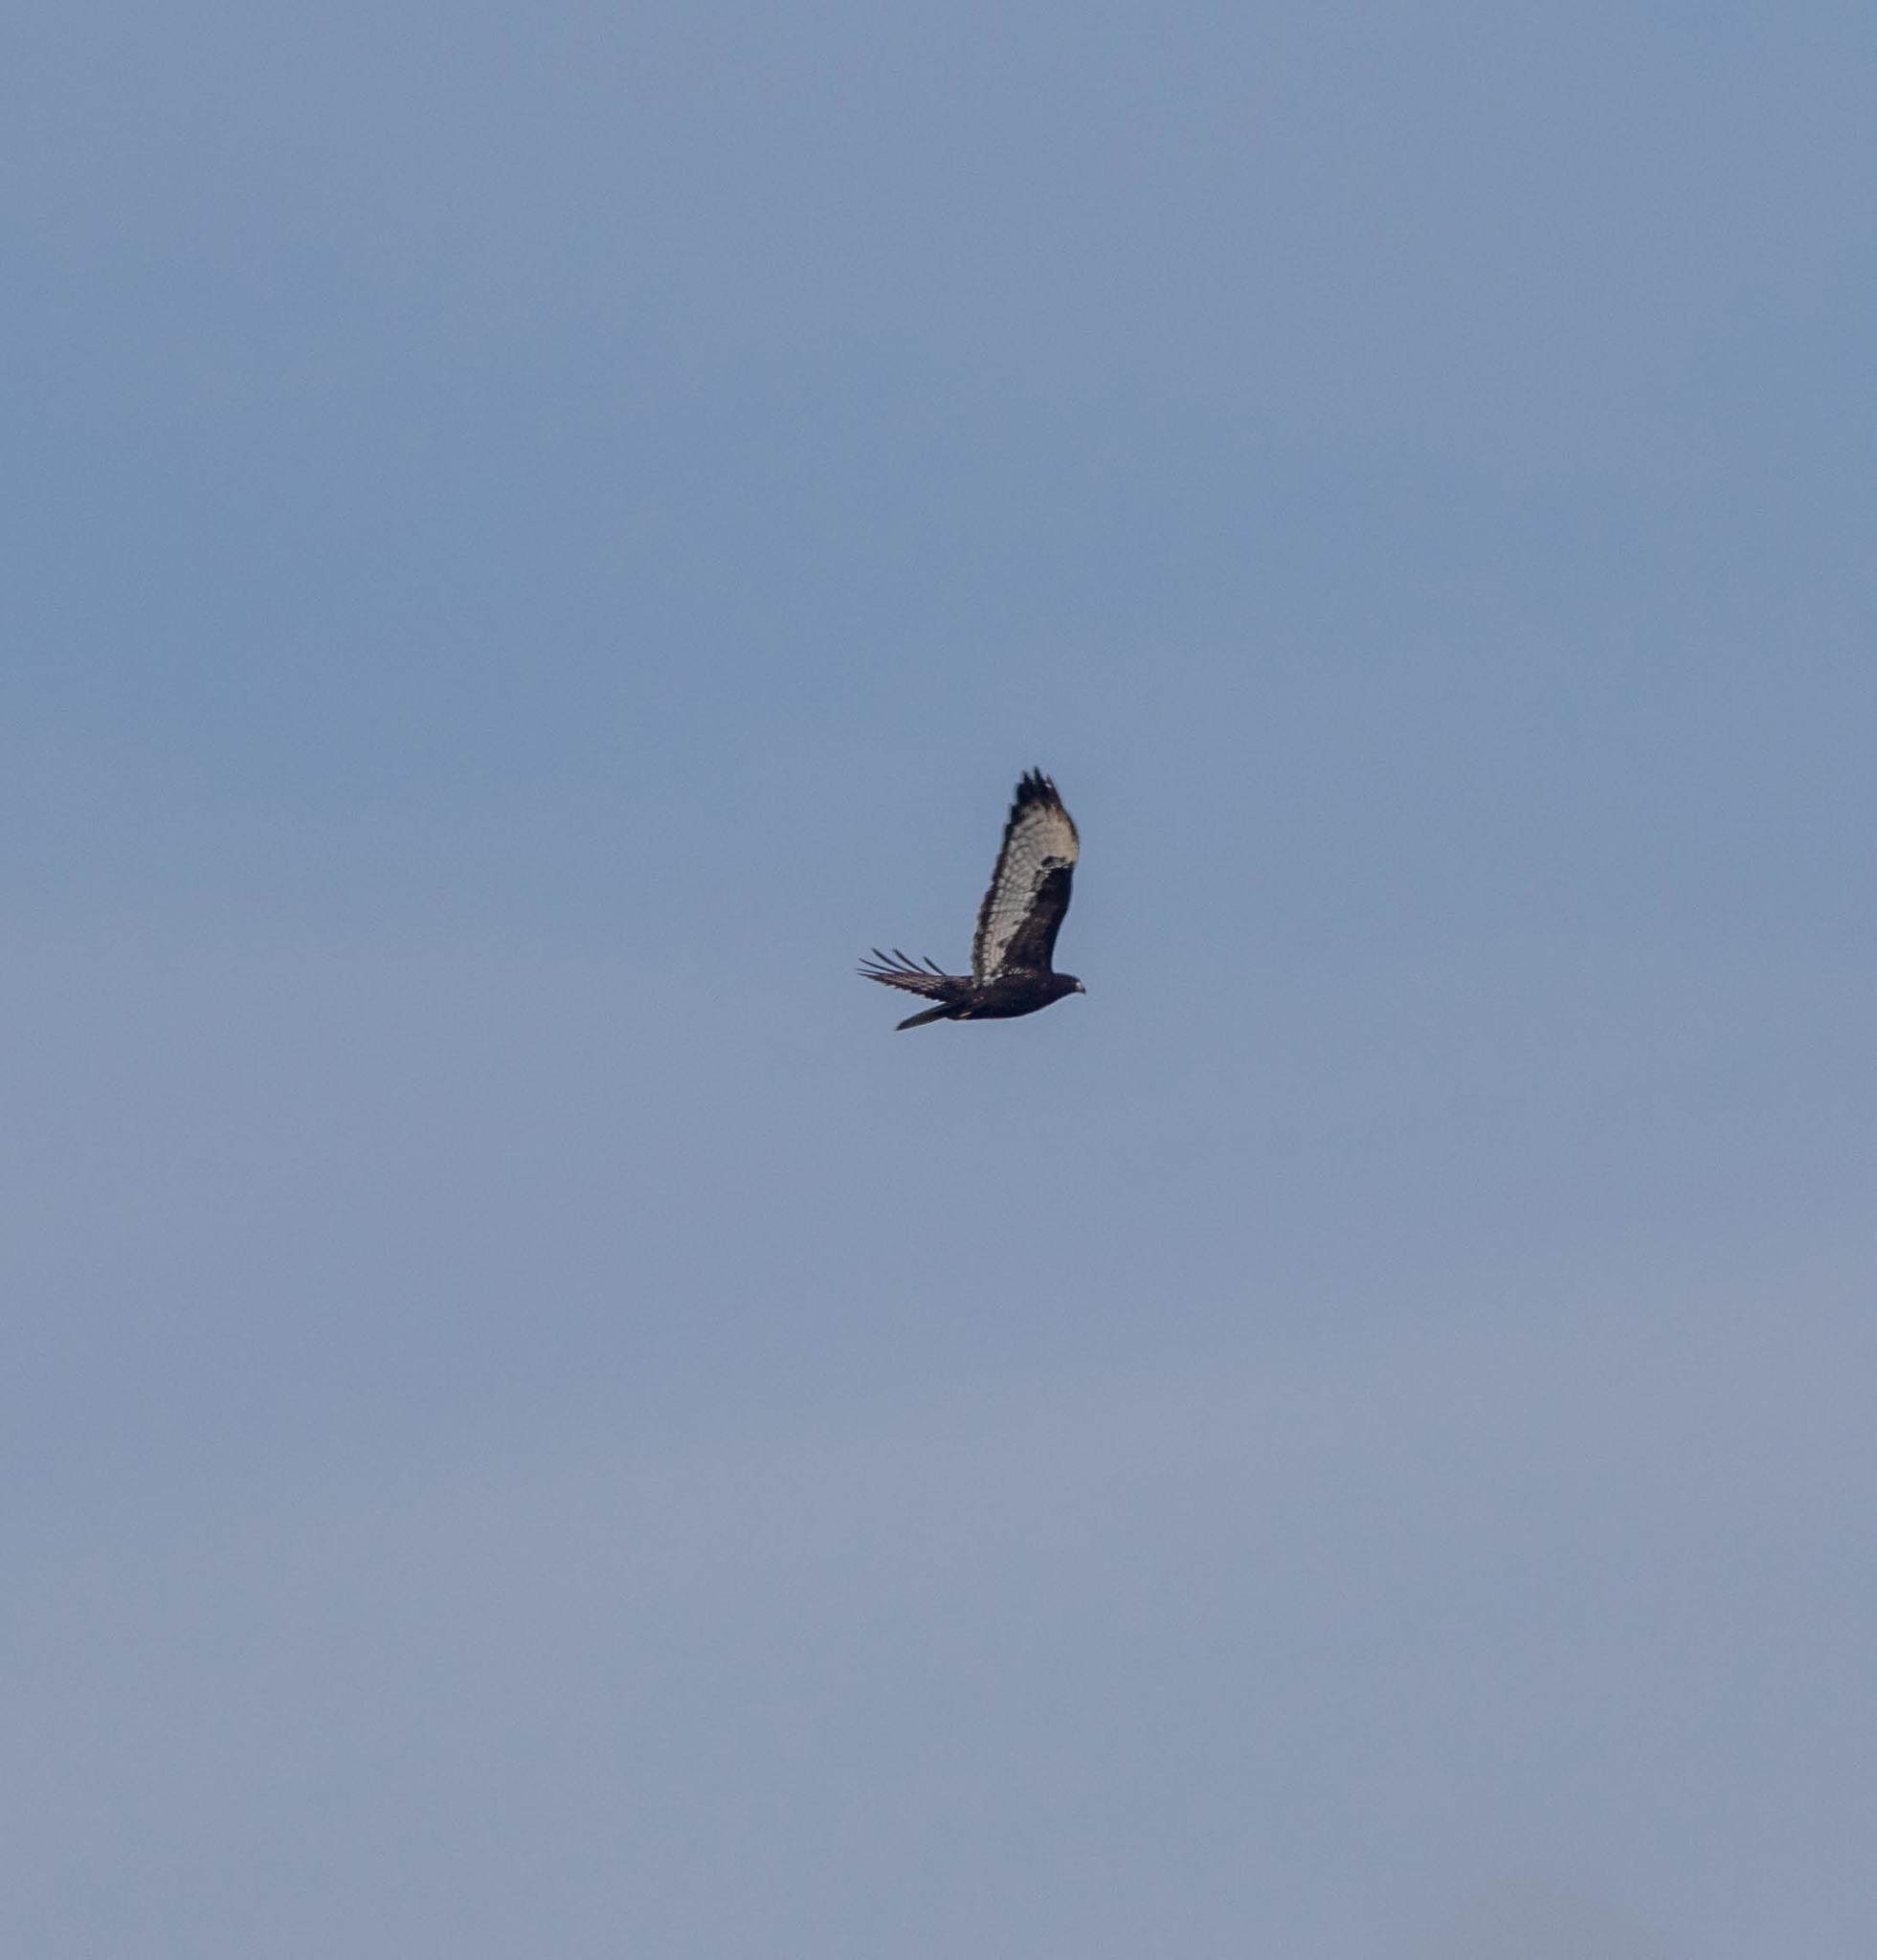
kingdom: Animalia
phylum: Chordata
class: Aves
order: Accipitriformes
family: Accipitridae
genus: Buteo
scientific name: Buteo jamaicensis
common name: Red-tailed hawk
